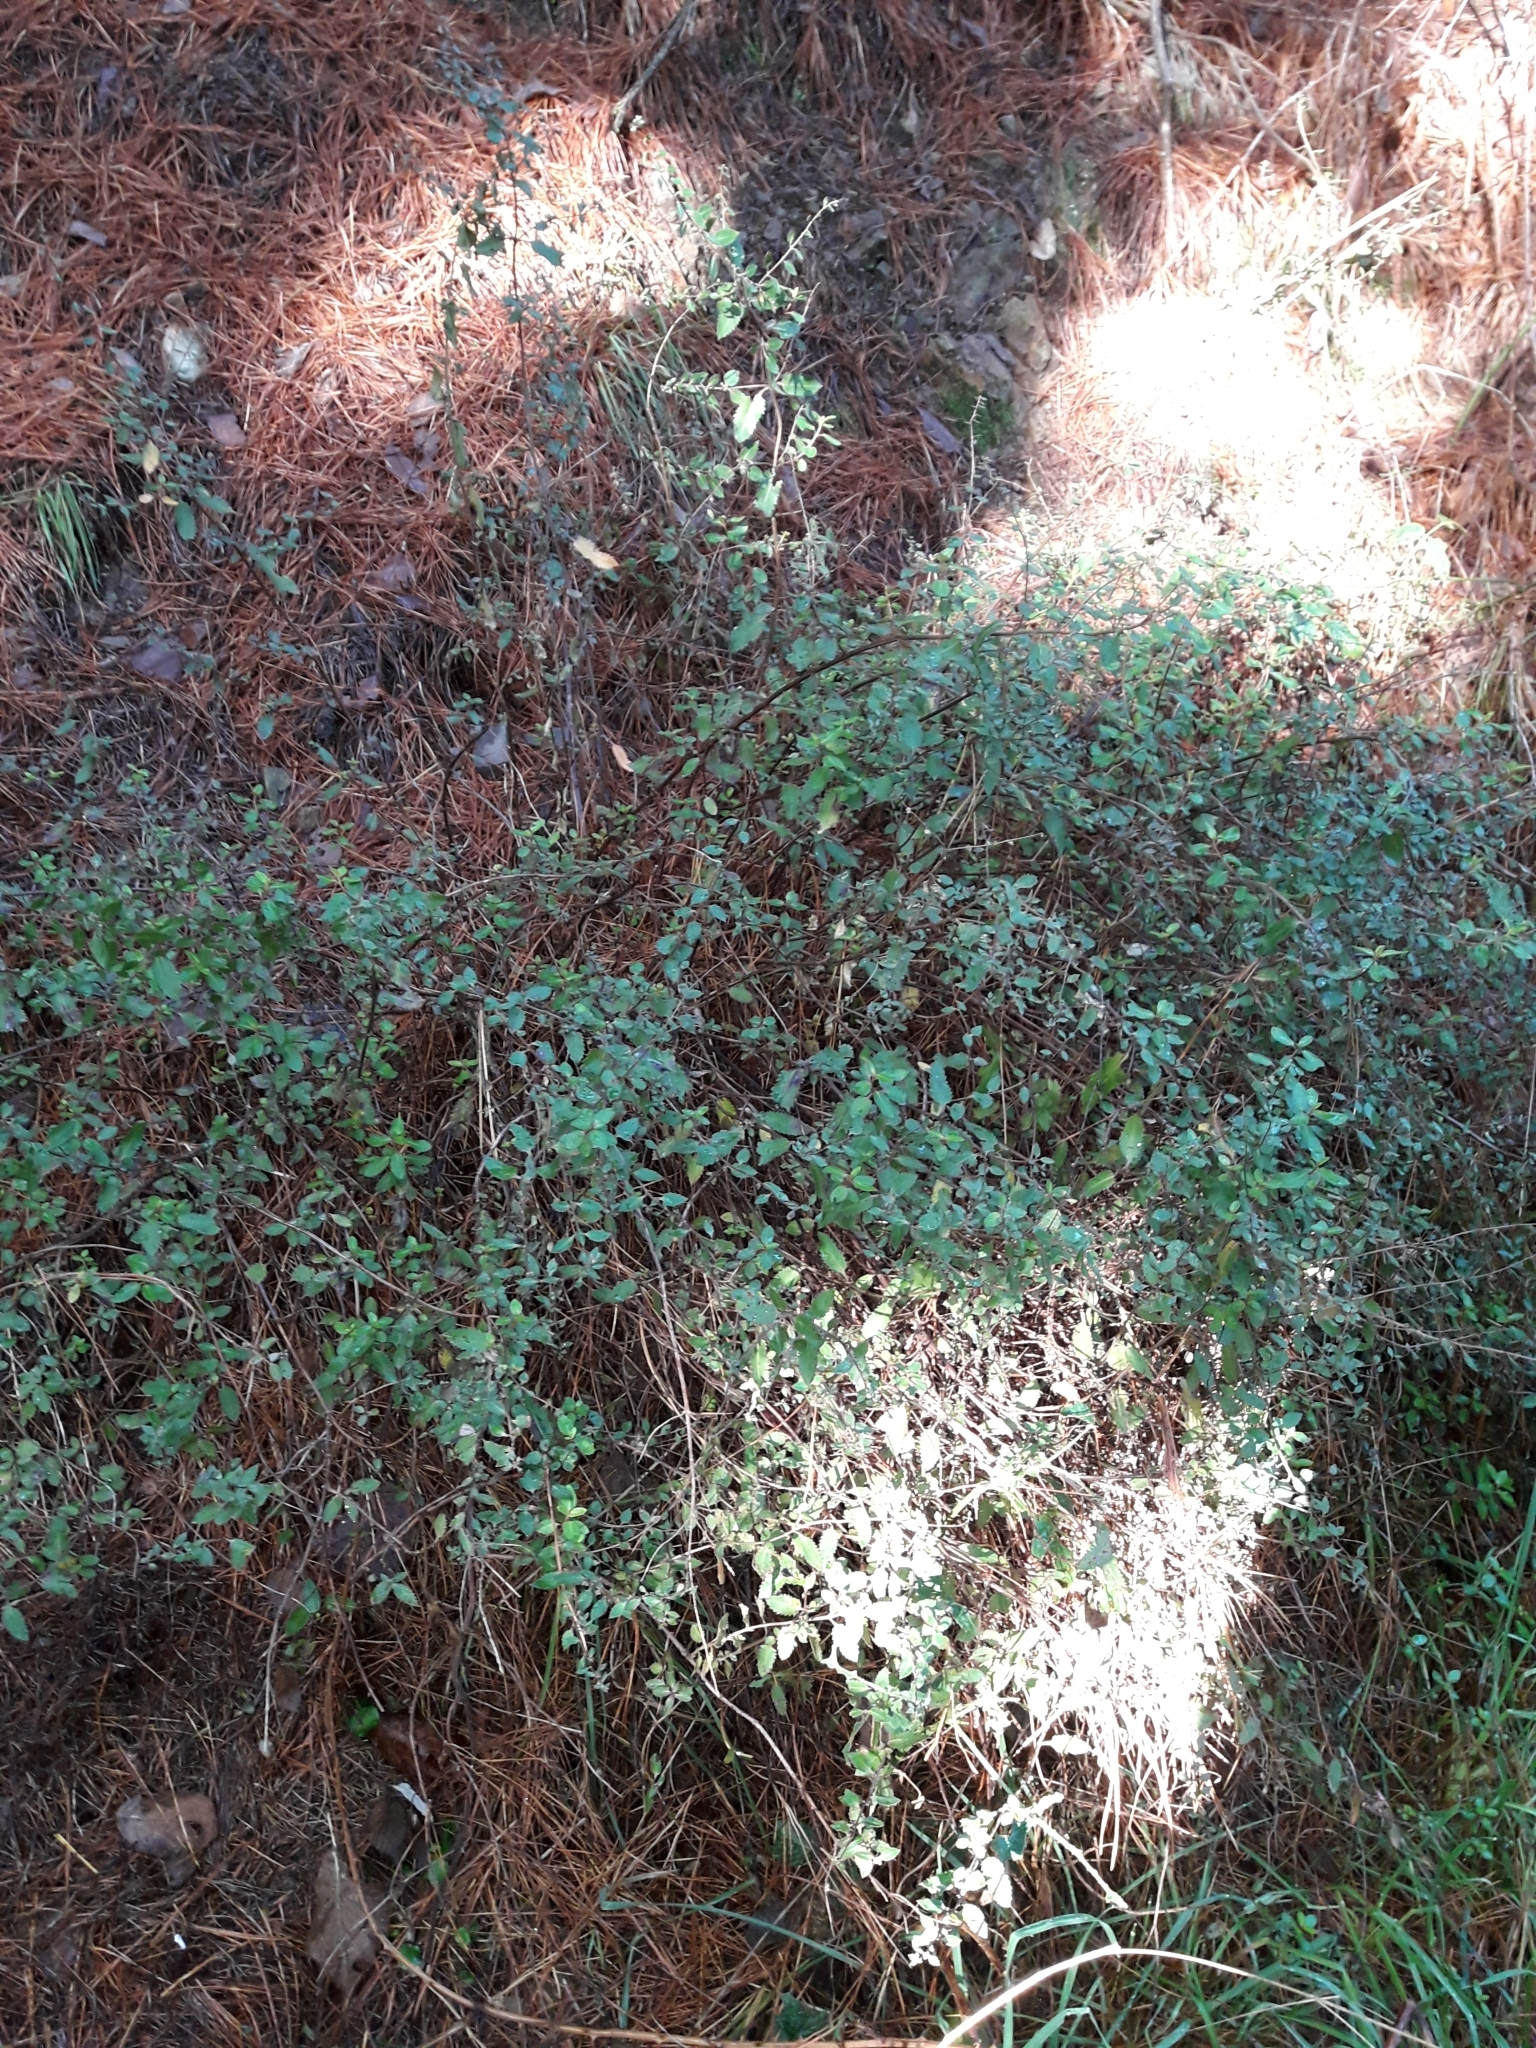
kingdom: Plantae
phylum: Tracheophyta
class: Magnoliopsida
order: Saxifragales
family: Haloragaceae
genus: Haloragis
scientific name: Haloragis erecta
